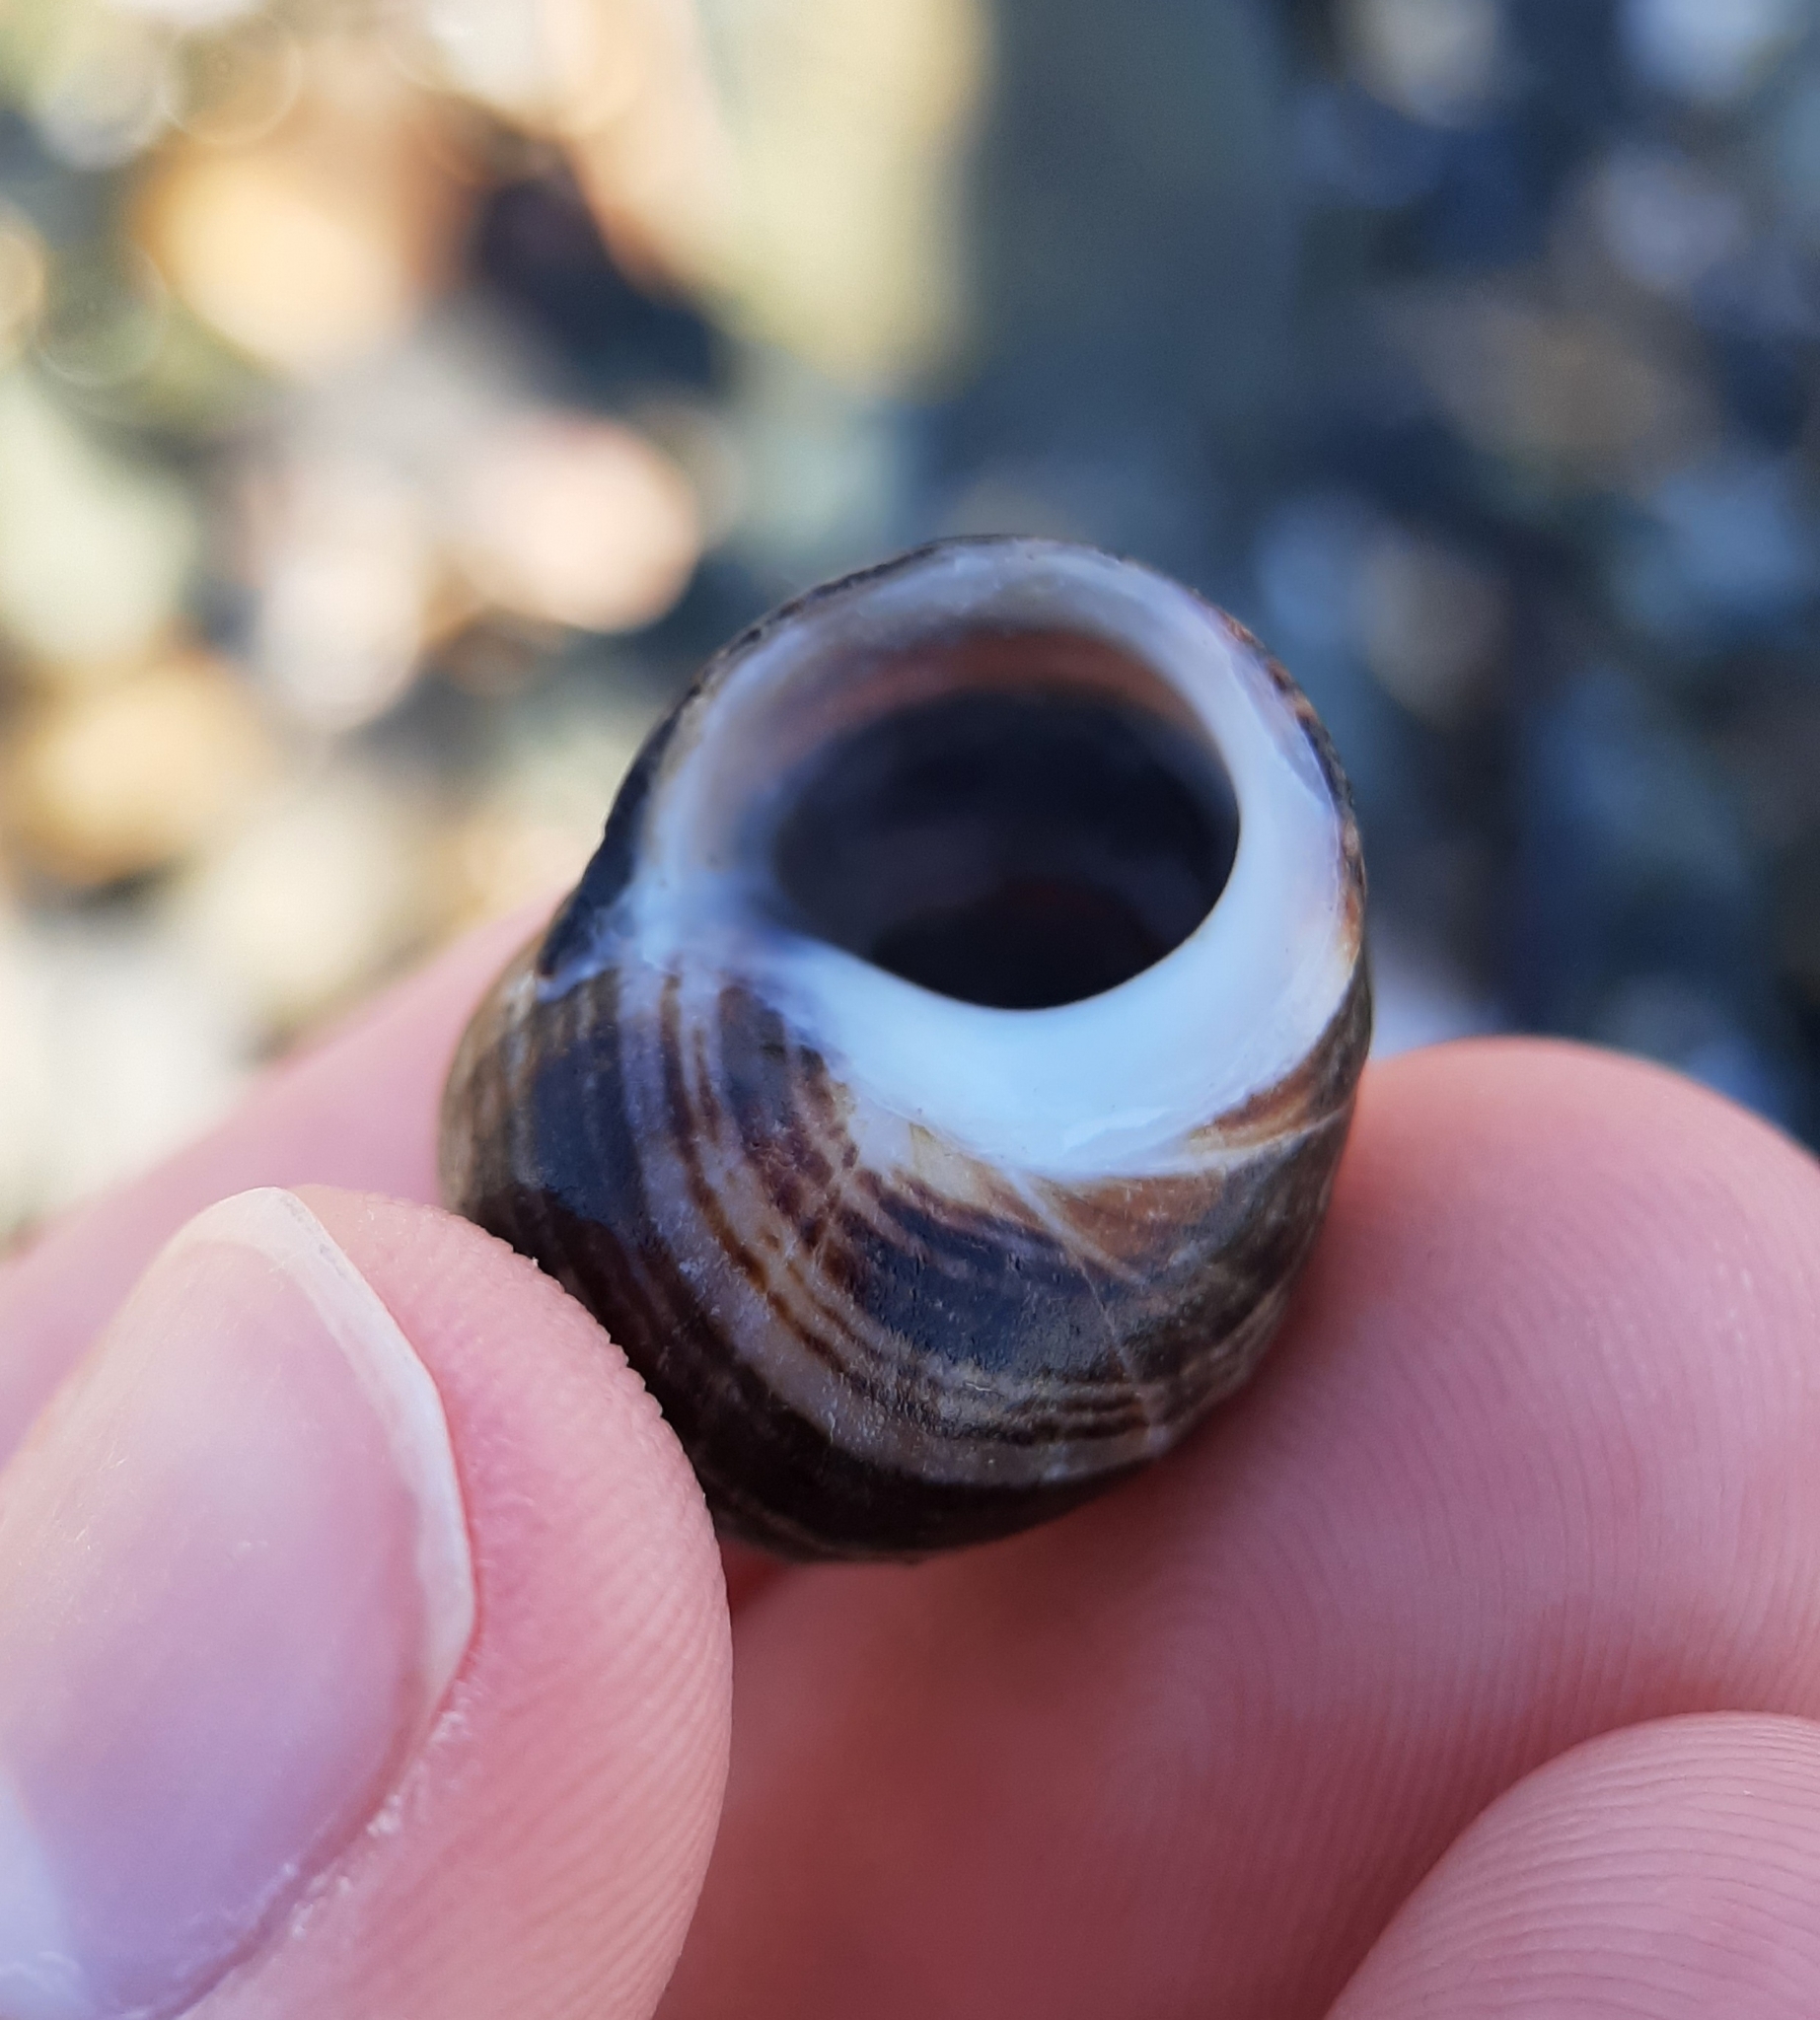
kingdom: Animalia
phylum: Mollusca
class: Gastropoda
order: Littorinimorpha
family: Littorinidae
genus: Littorina
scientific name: Littorina littorea
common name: Common periwinkle
